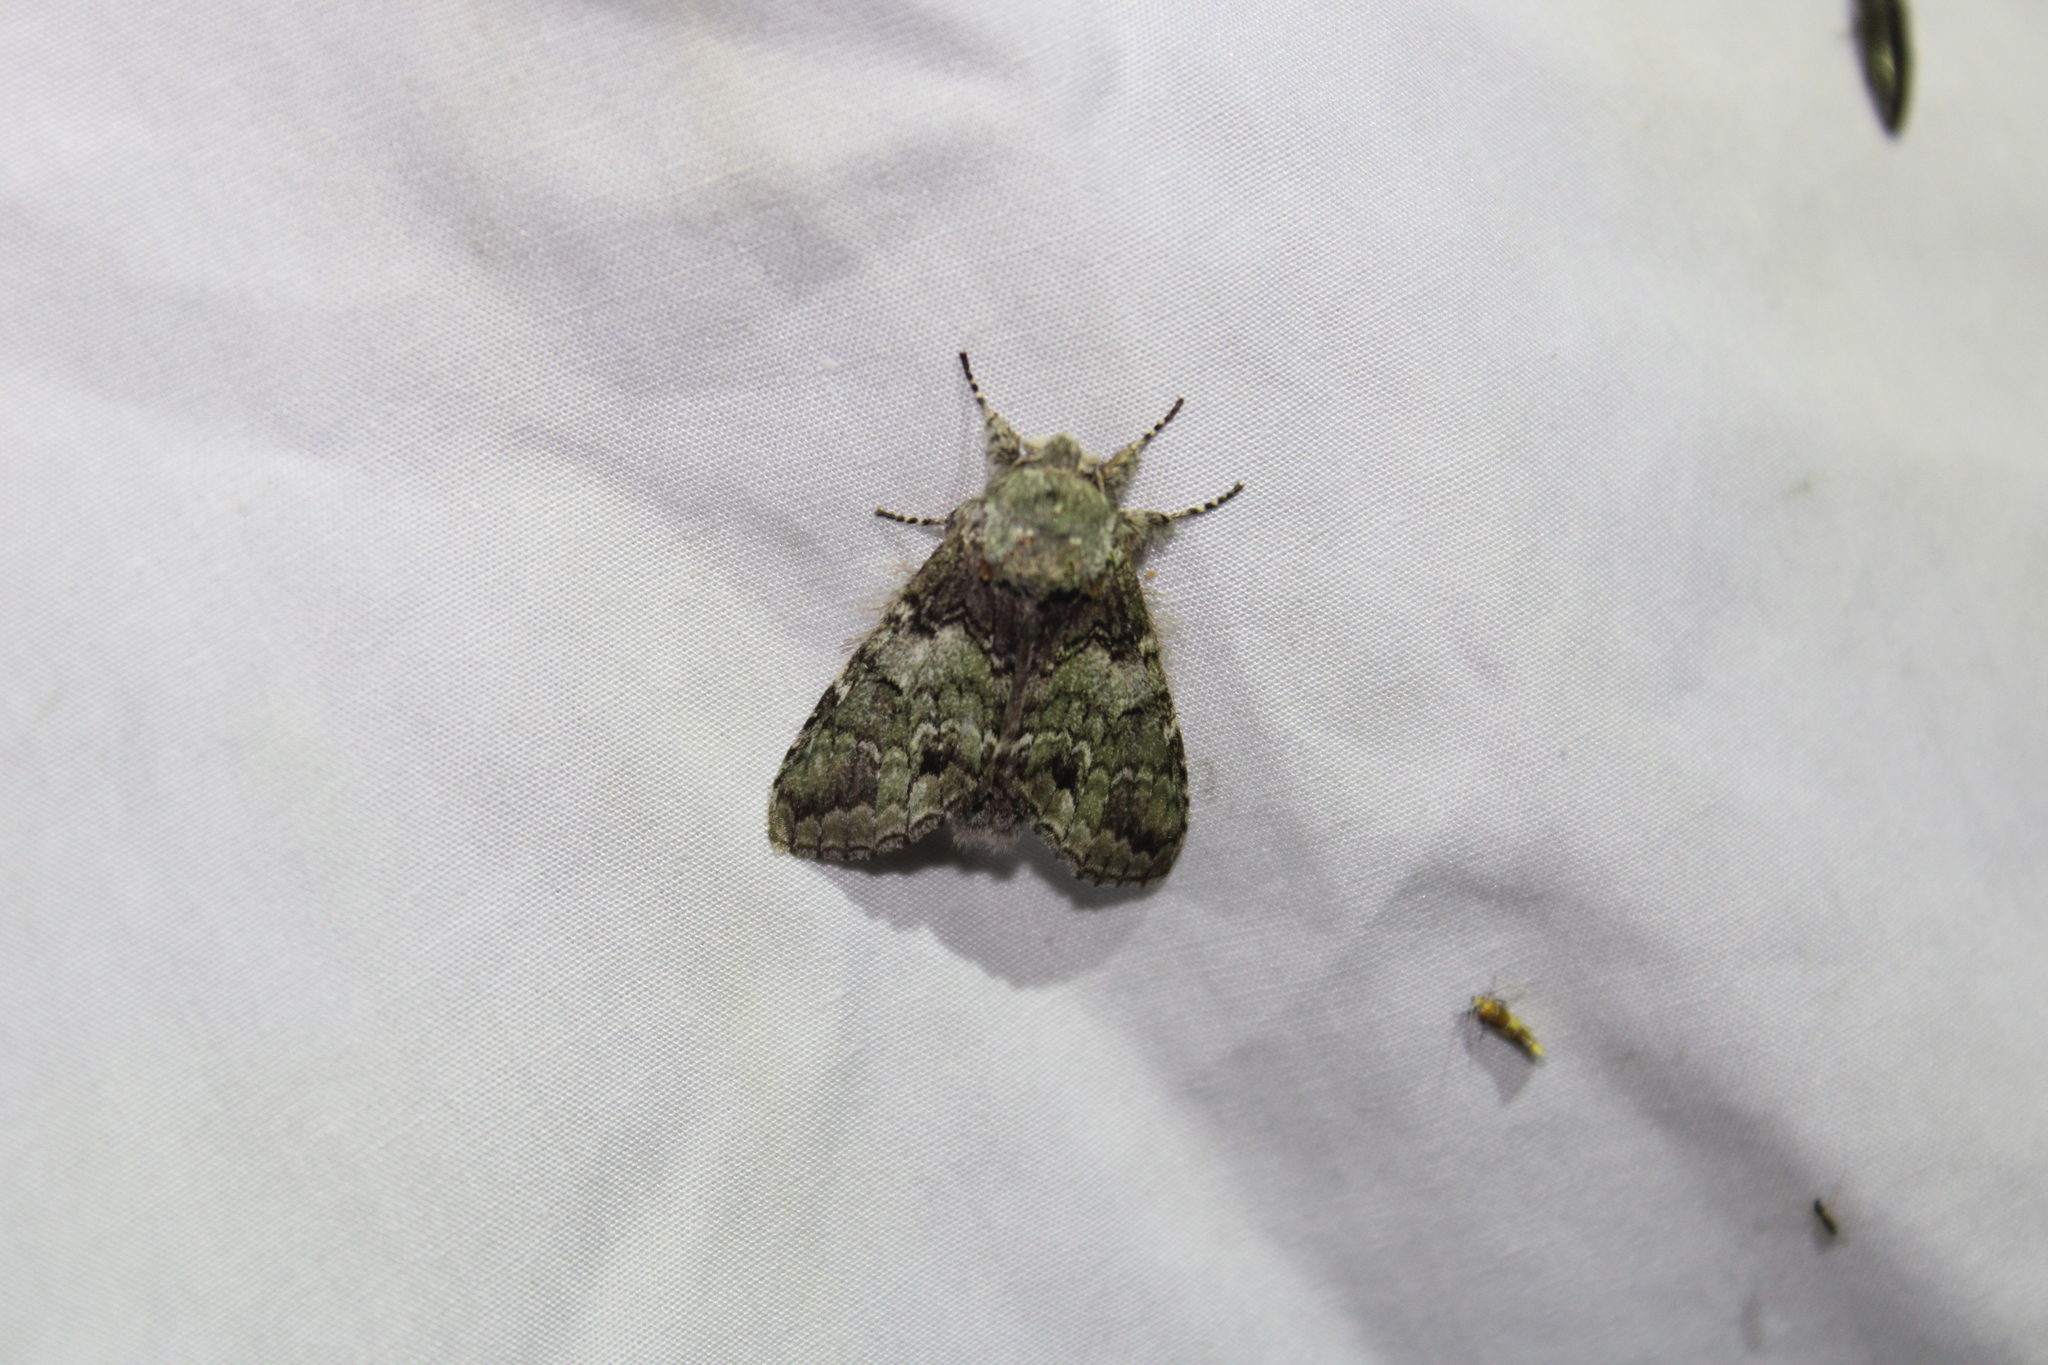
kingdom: Animalia
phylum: Arthropoda
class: Insecta
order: Lepidoptera
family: Notodontidae
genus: Macrurocampa
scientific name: Macrurocampa marthesia
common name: Mottled prominent
